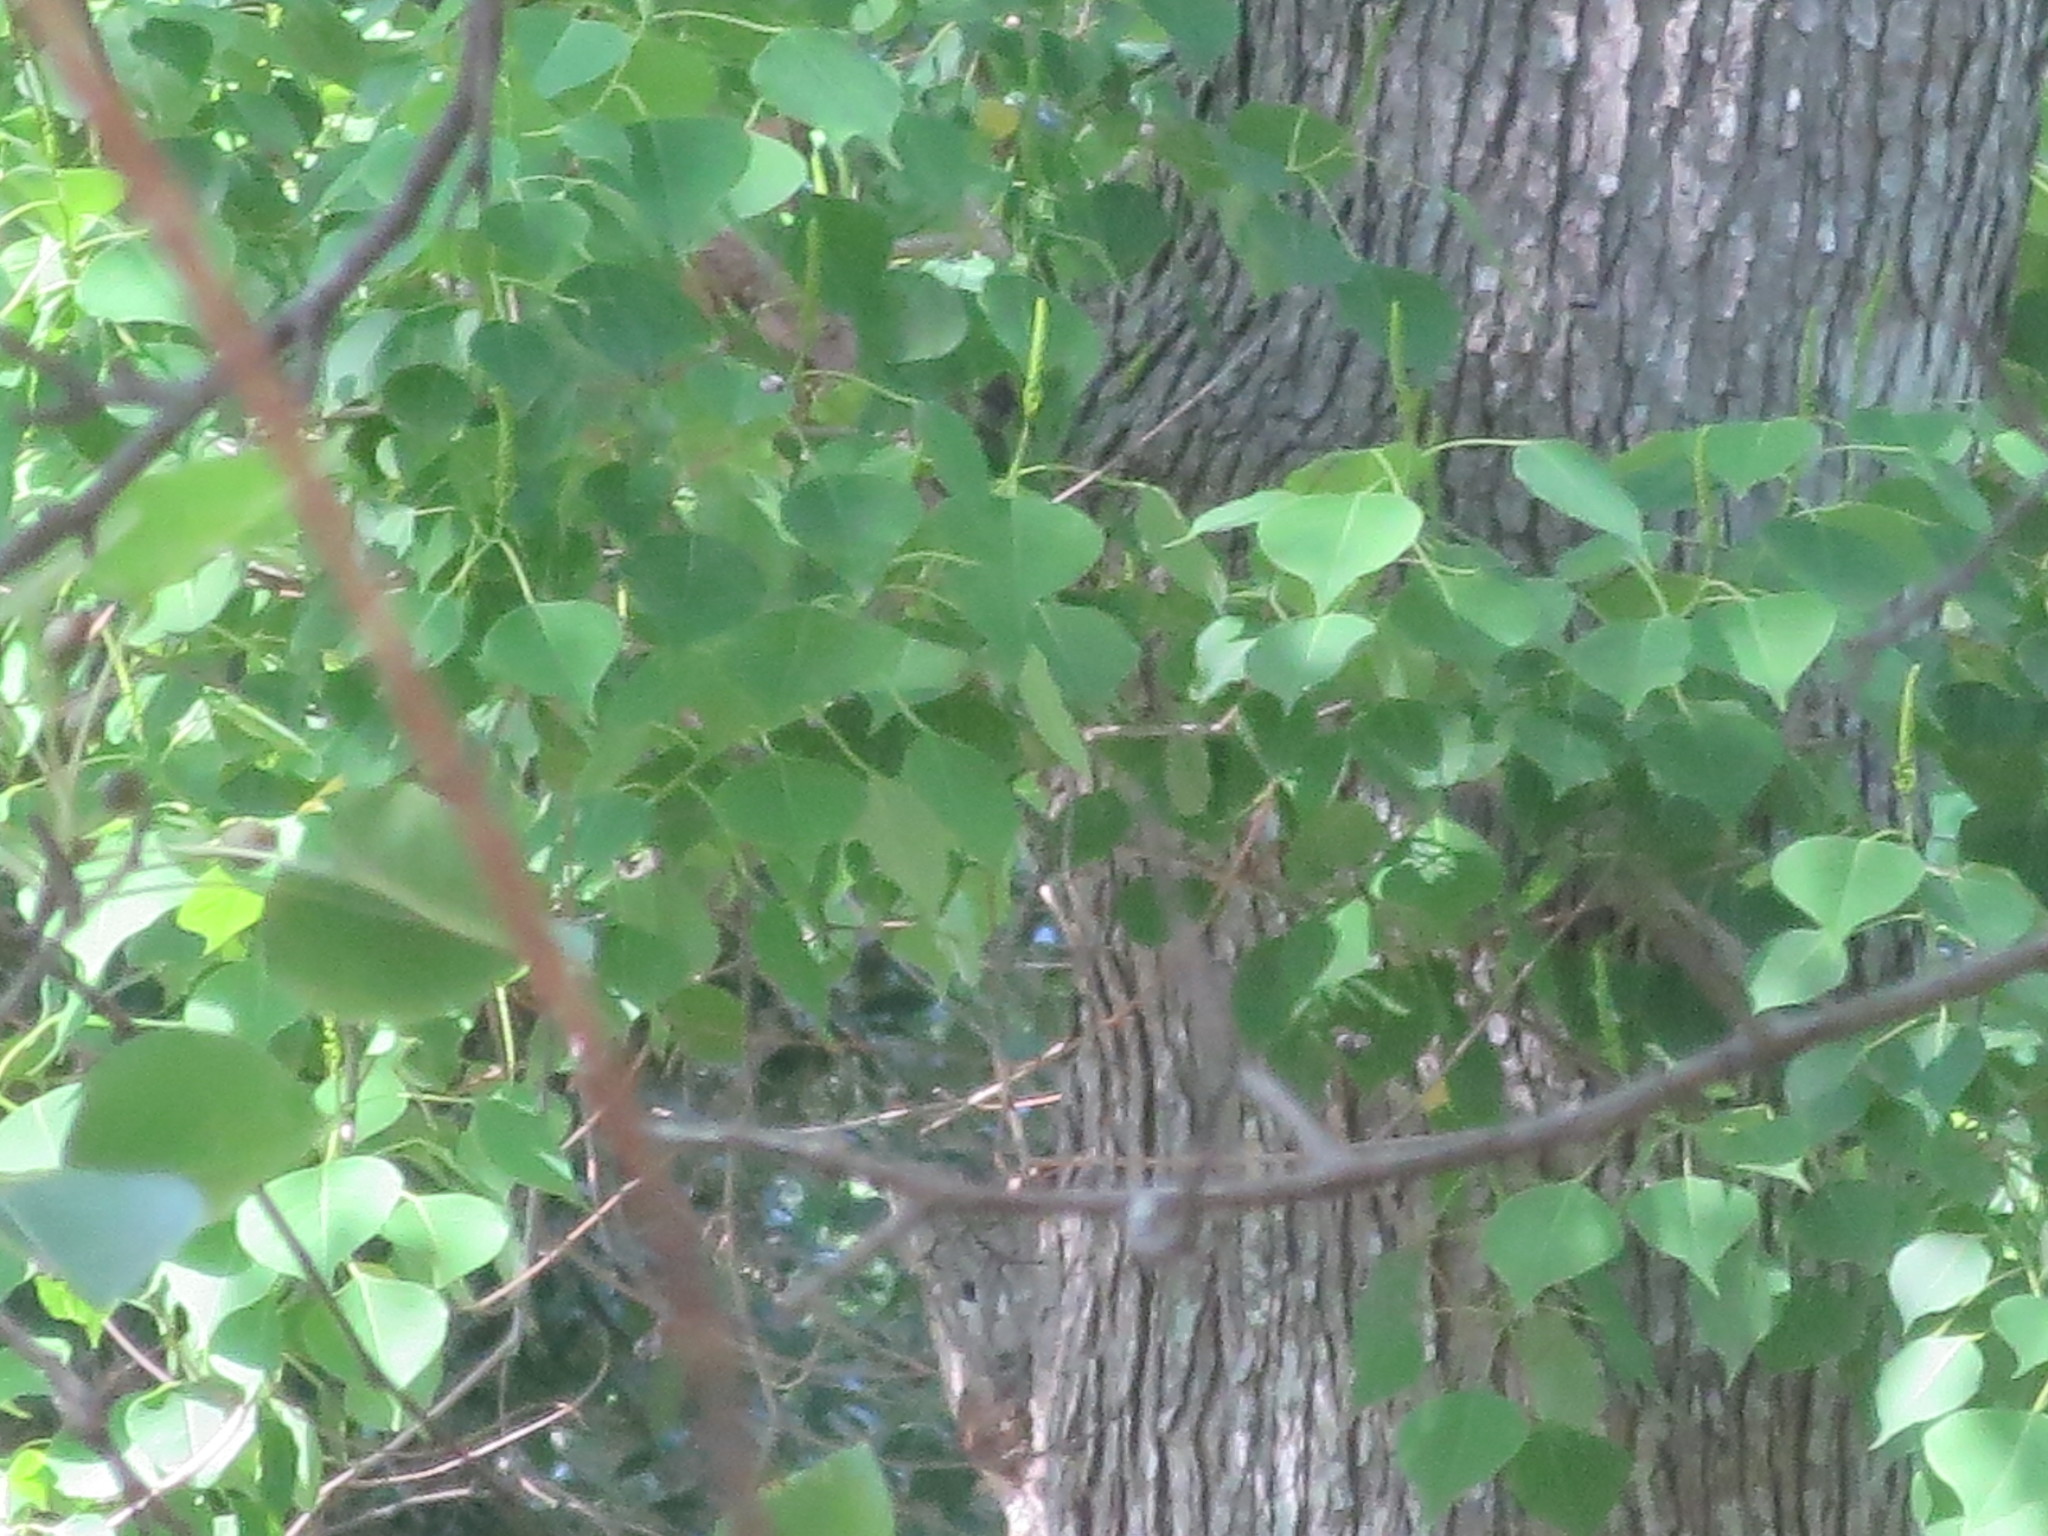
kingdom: Plantae
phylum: Tracheophyta
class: Magnoliopsida
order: Malpighiales
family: Euphorbiaceae
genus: Triadica
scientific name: Triadica sebifera
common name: Chinese tallow
